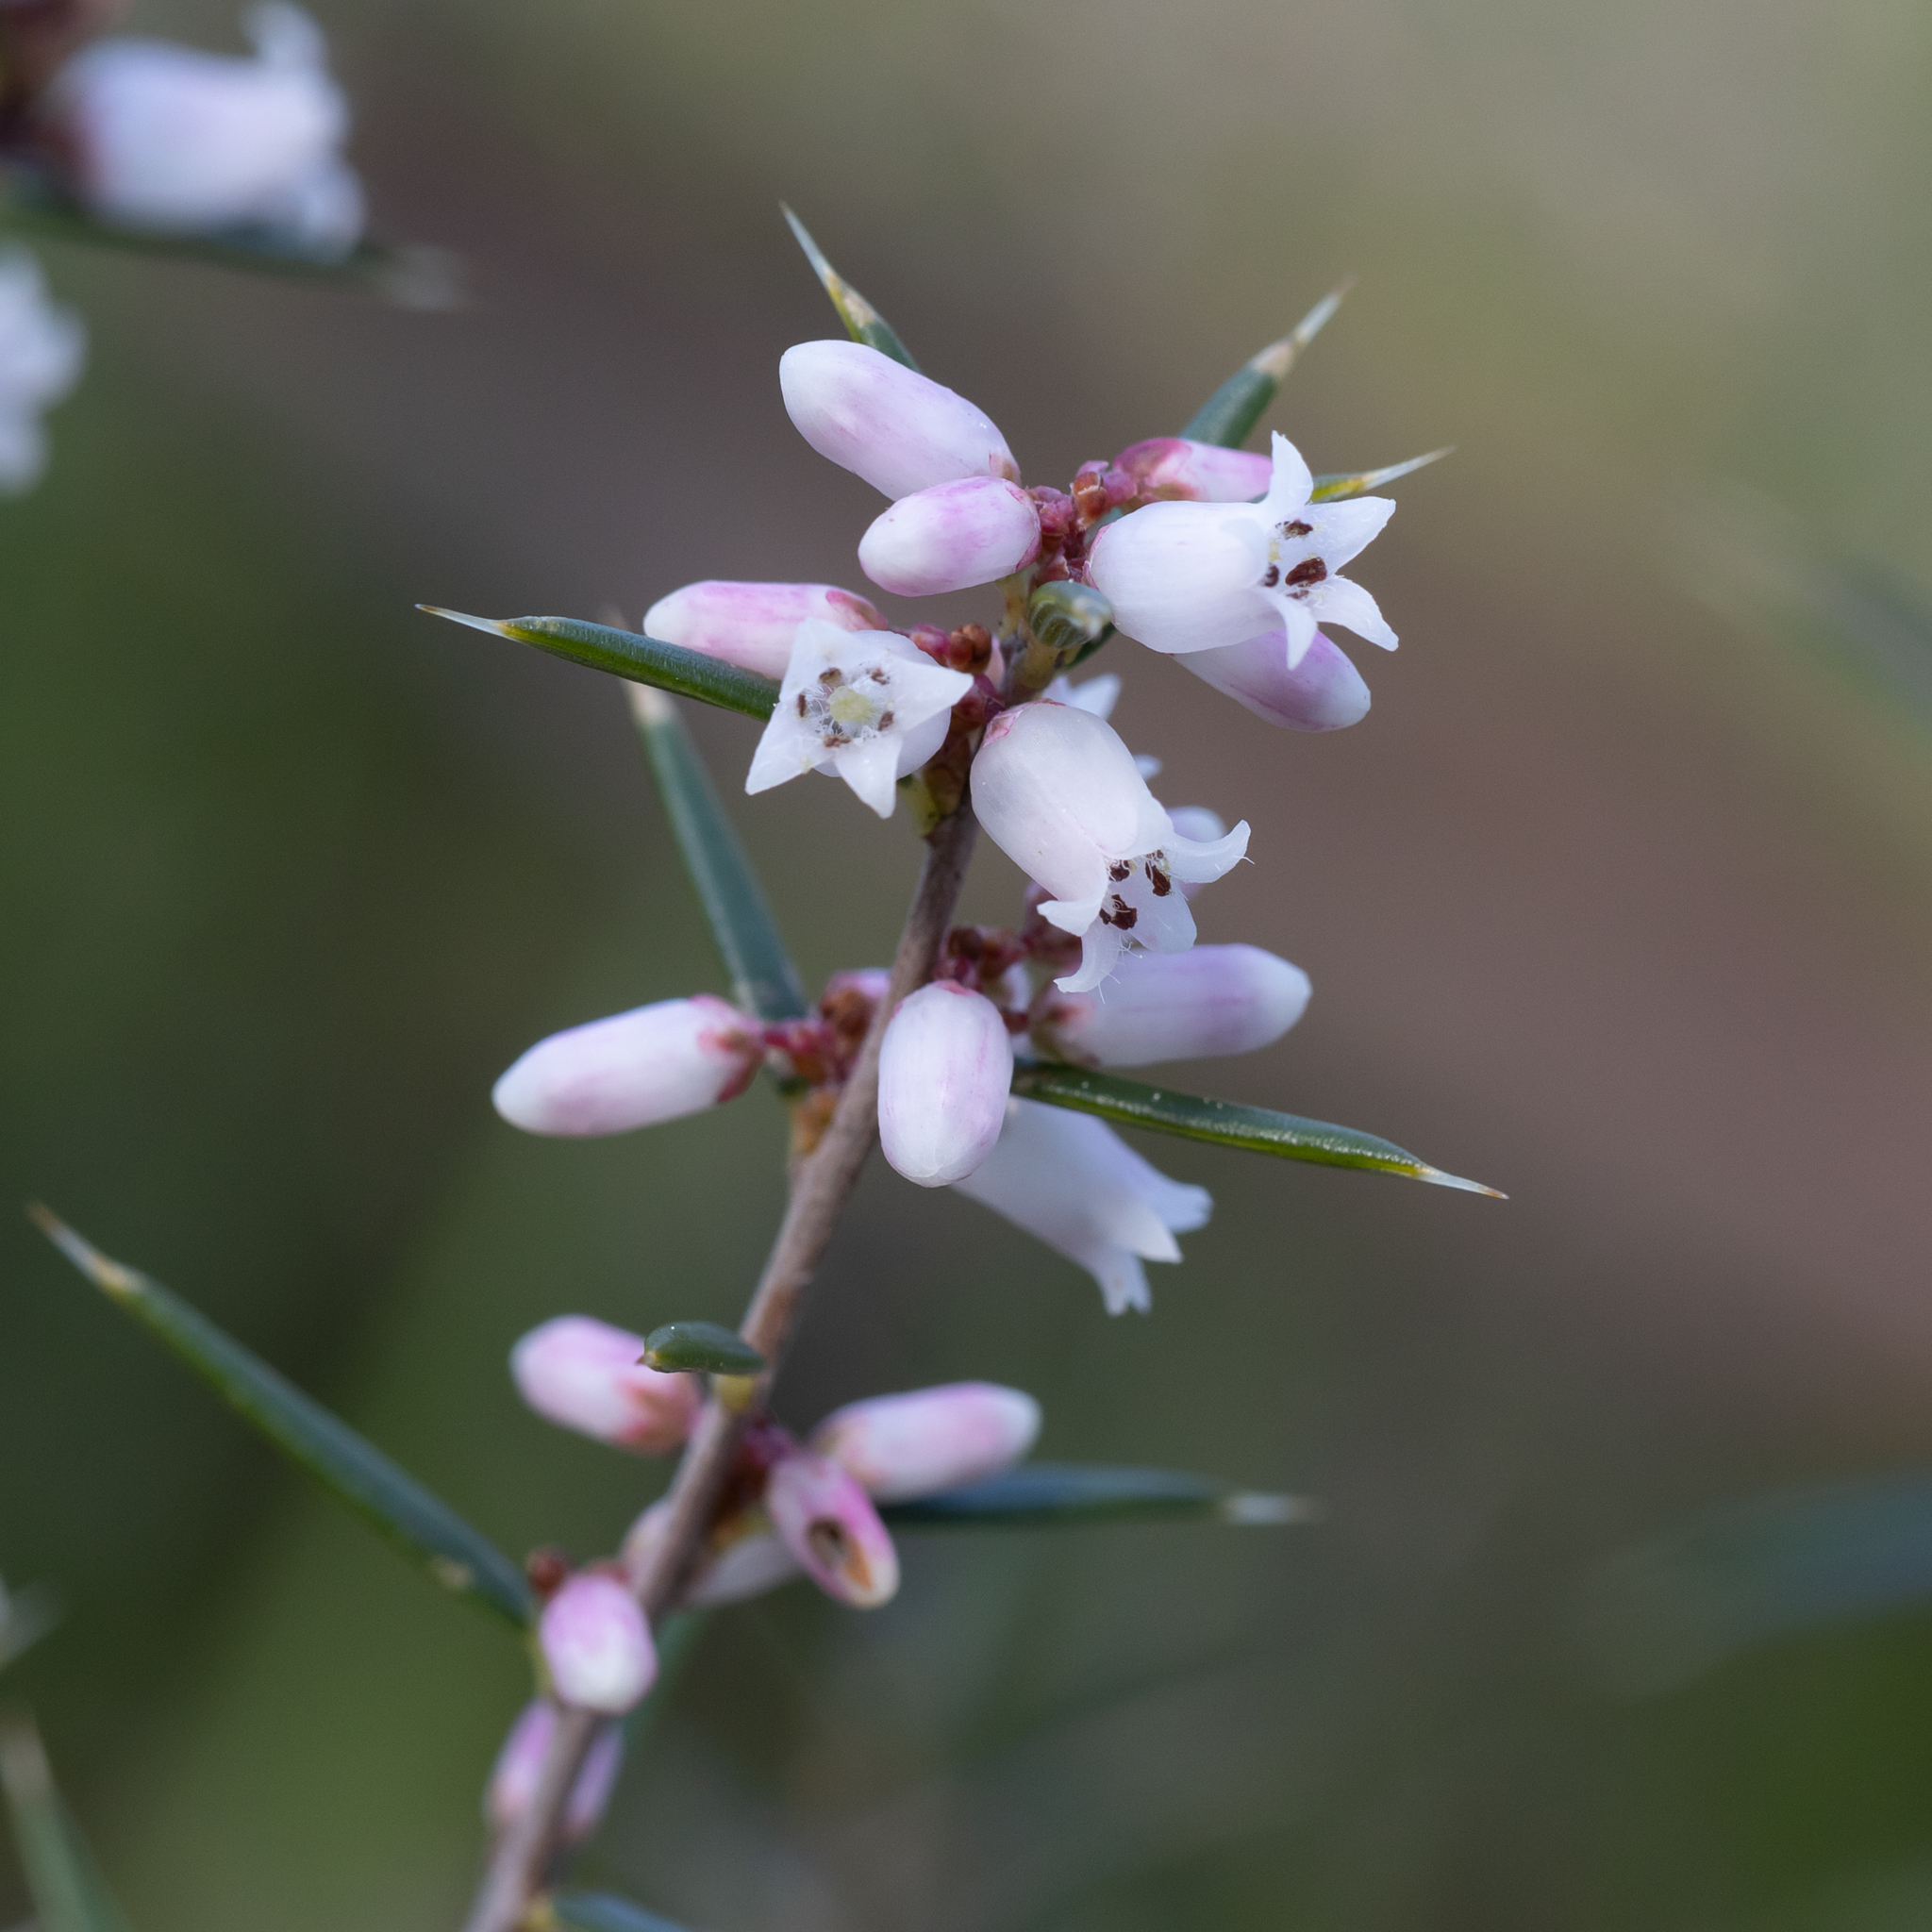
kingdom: Plantae
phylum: Tracheophyta
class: Magnoliopsida
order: Ericales
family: Ericaceae
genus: Lissanthe
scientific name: Lissanthe strigosa
